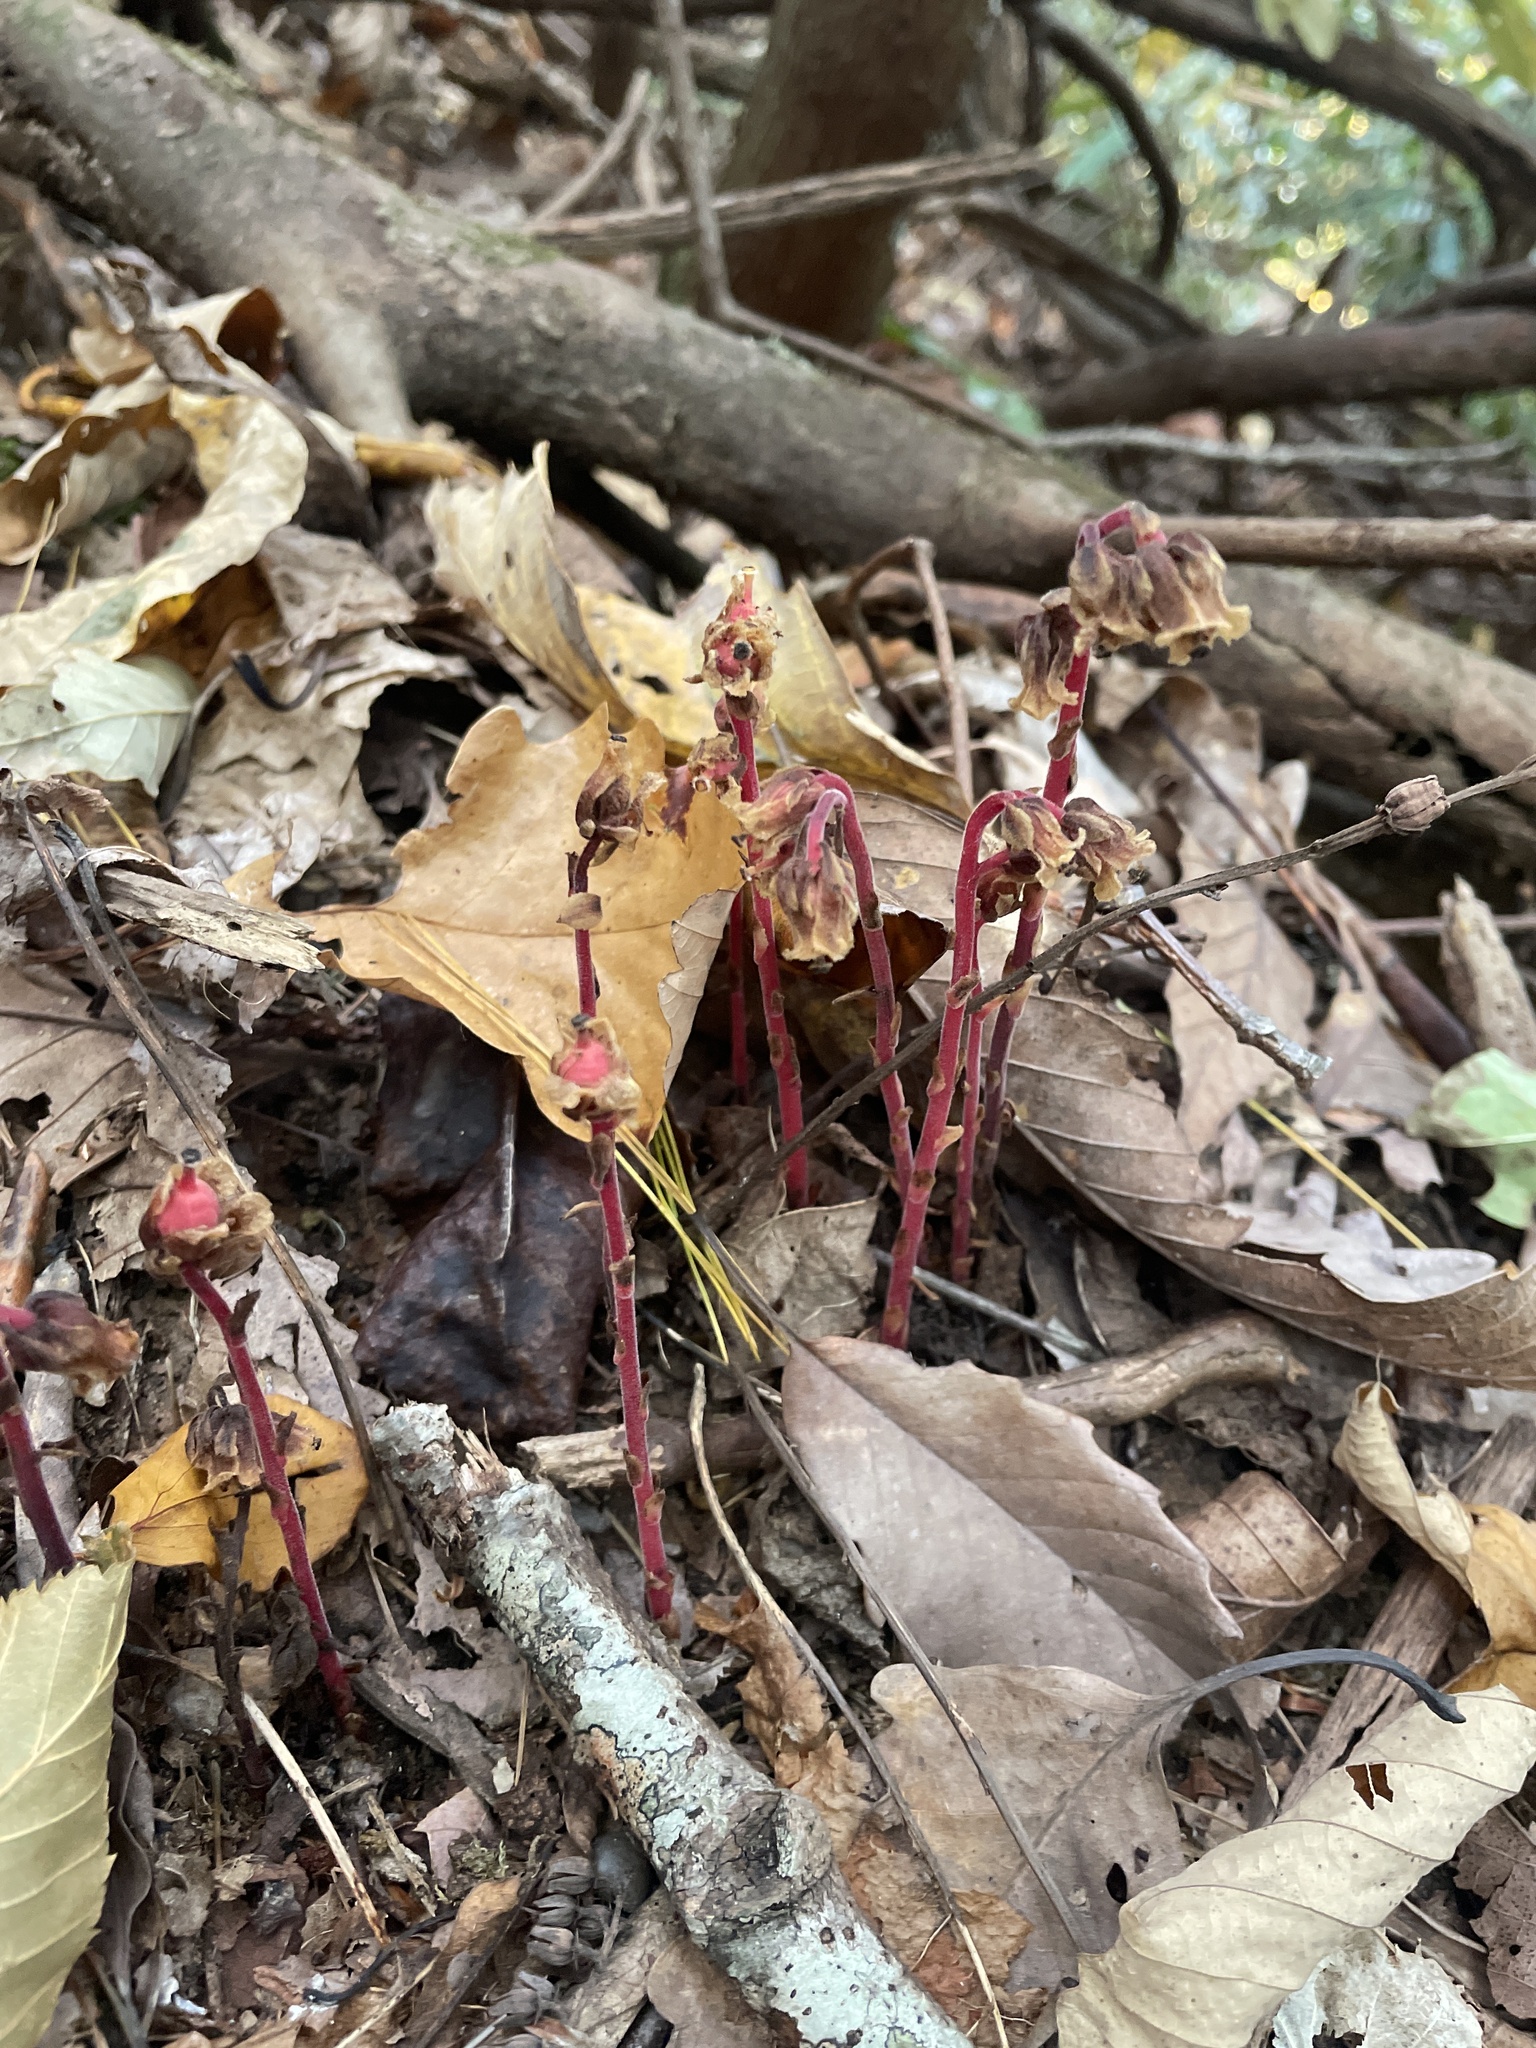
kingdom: Plantae
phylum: Tracheophyta
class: Magnoliopsida
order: Ericales
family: Ericaceae
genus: Hypopitys
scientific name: Hypopitys monotropa
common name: Yellow bird's-nest
